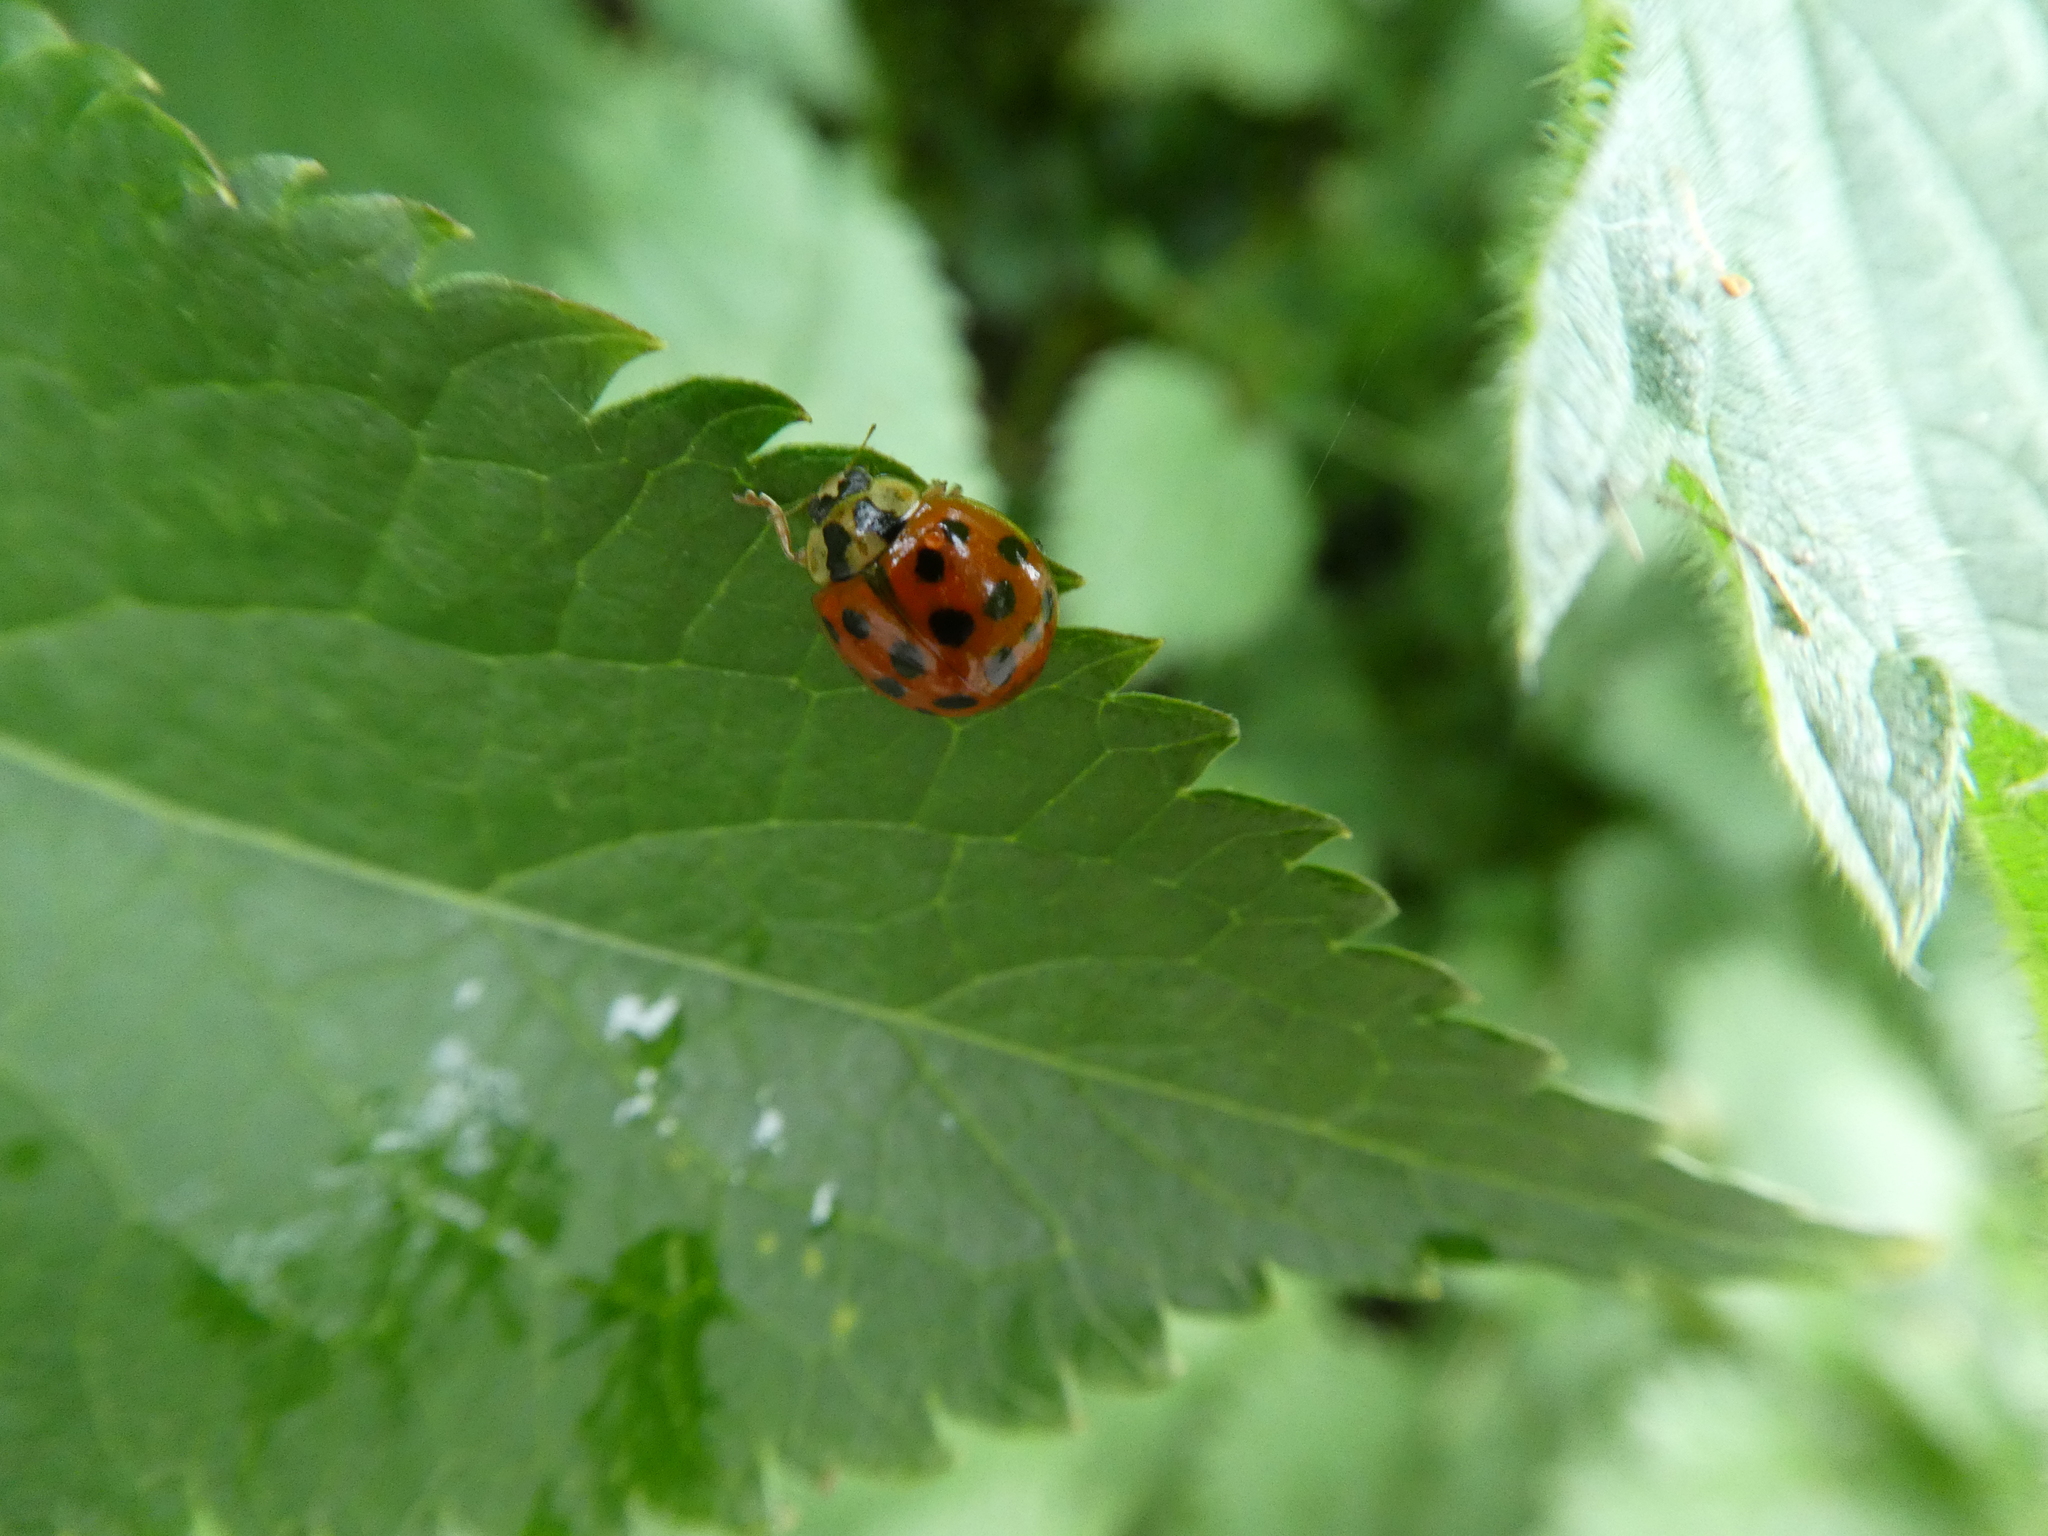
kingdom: Animalia
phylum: Arthropoda
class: Insecta
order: Coleoptera
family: Coccinellidae
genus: Harmonia
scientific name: Harmonia axyridis
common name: Harlequin ladybird
